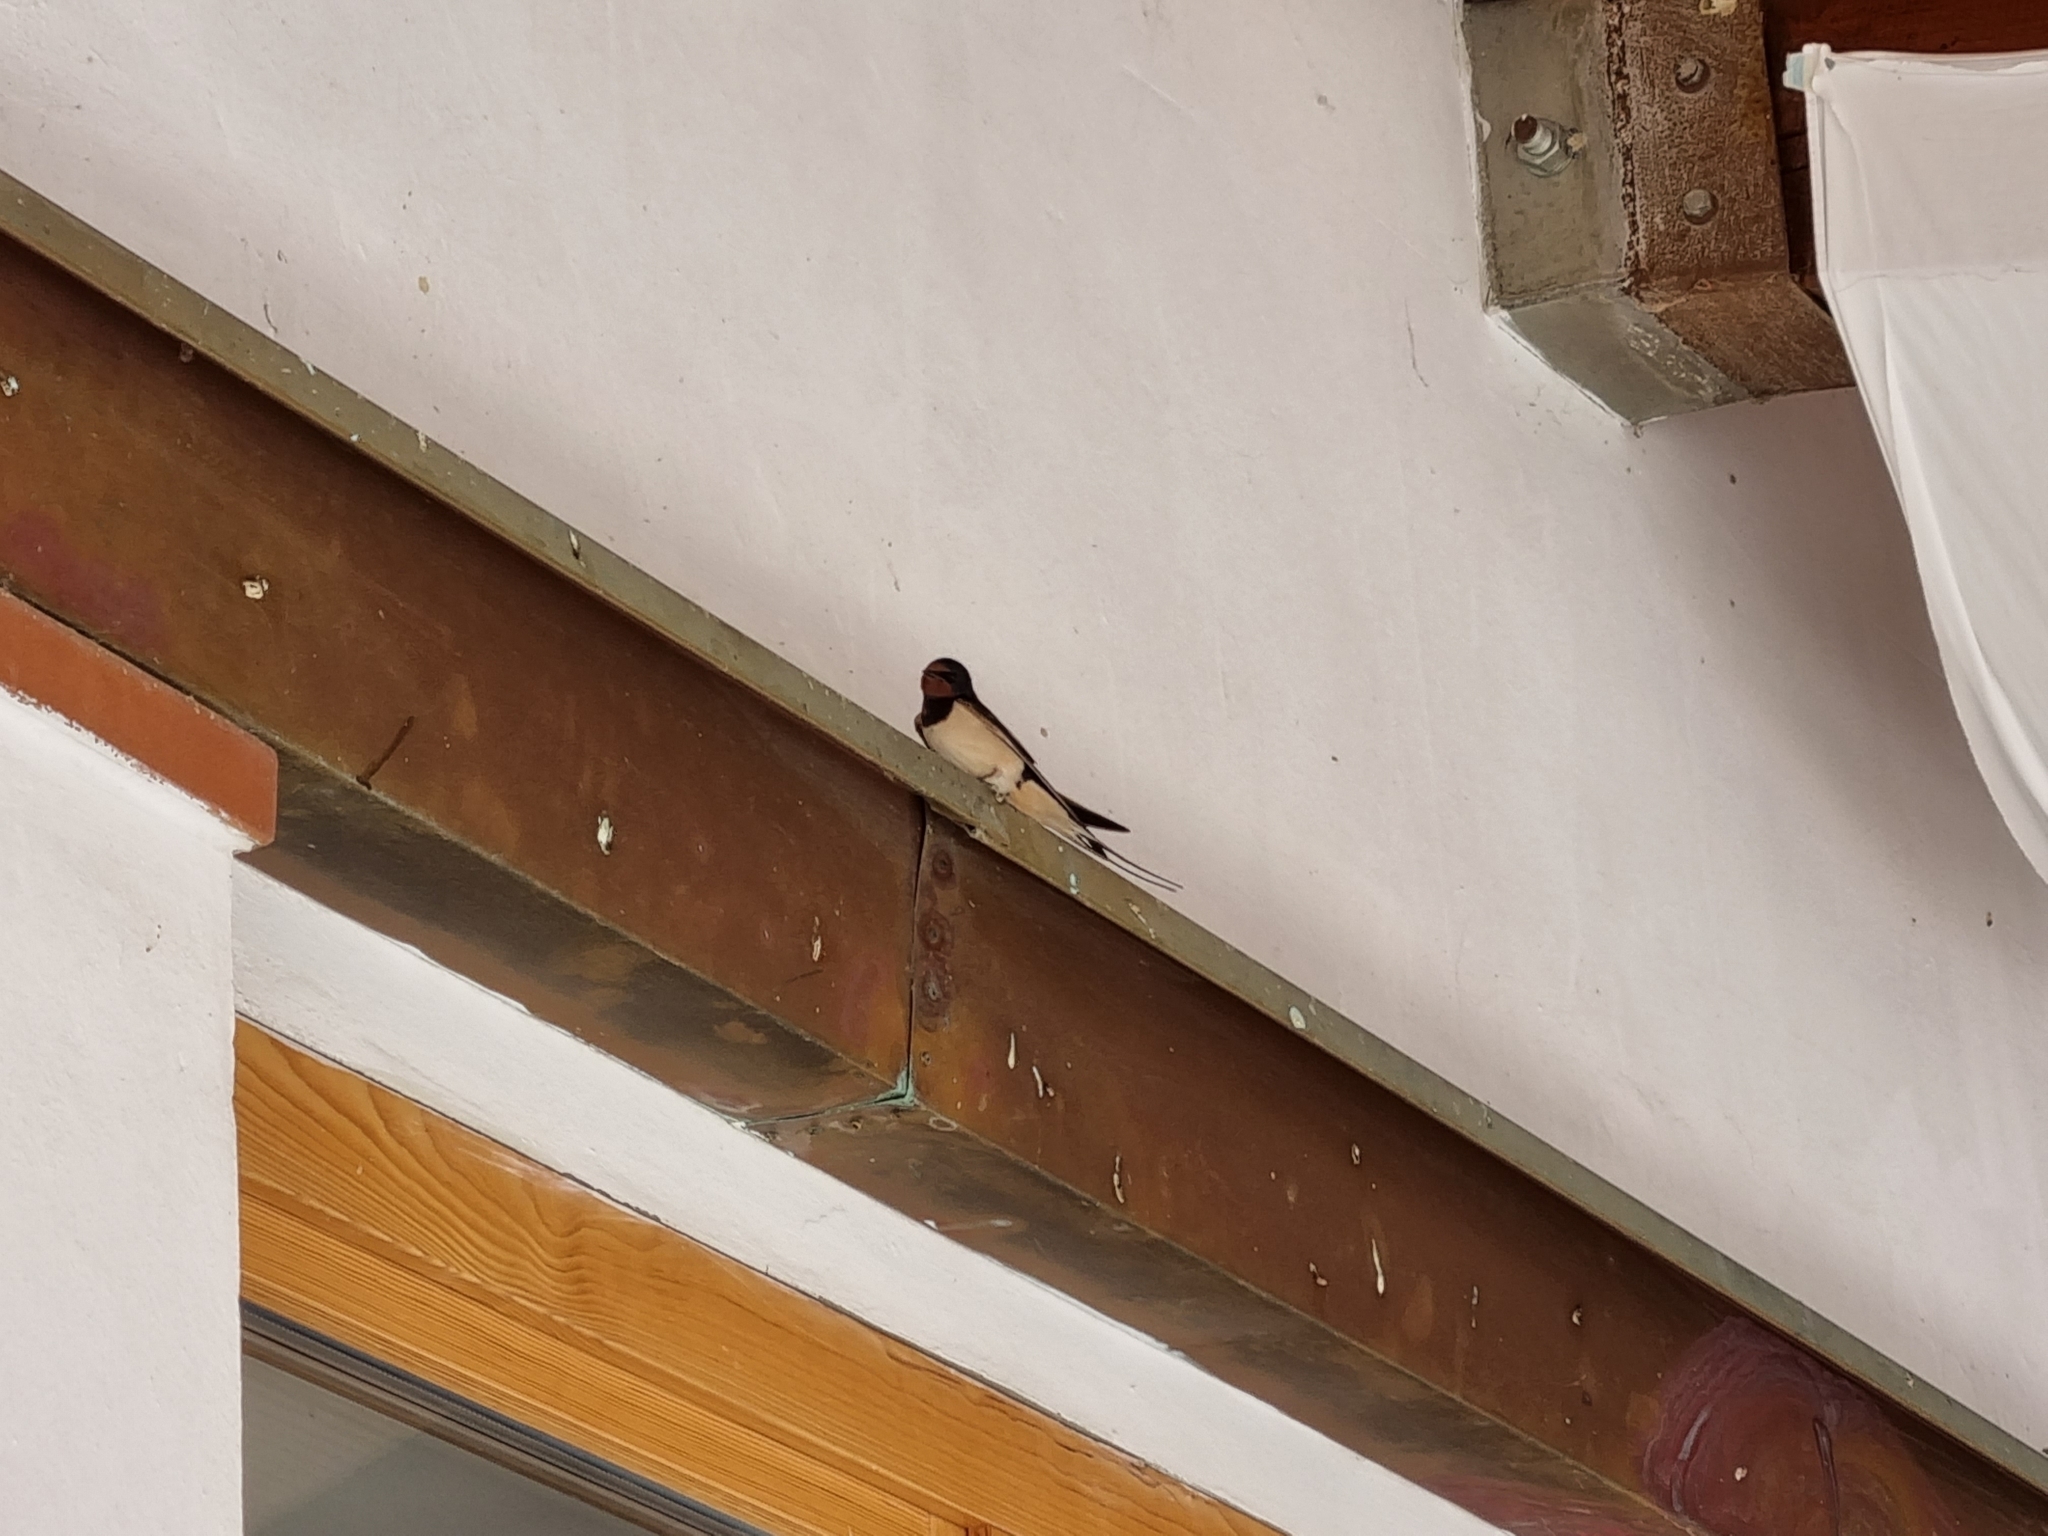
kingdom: Animalia
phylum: Chordata
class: Aves
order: Passeriformes
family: Hirundinidae
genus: Hirundo
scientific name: Hirundo rustica
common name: Barn swallow
